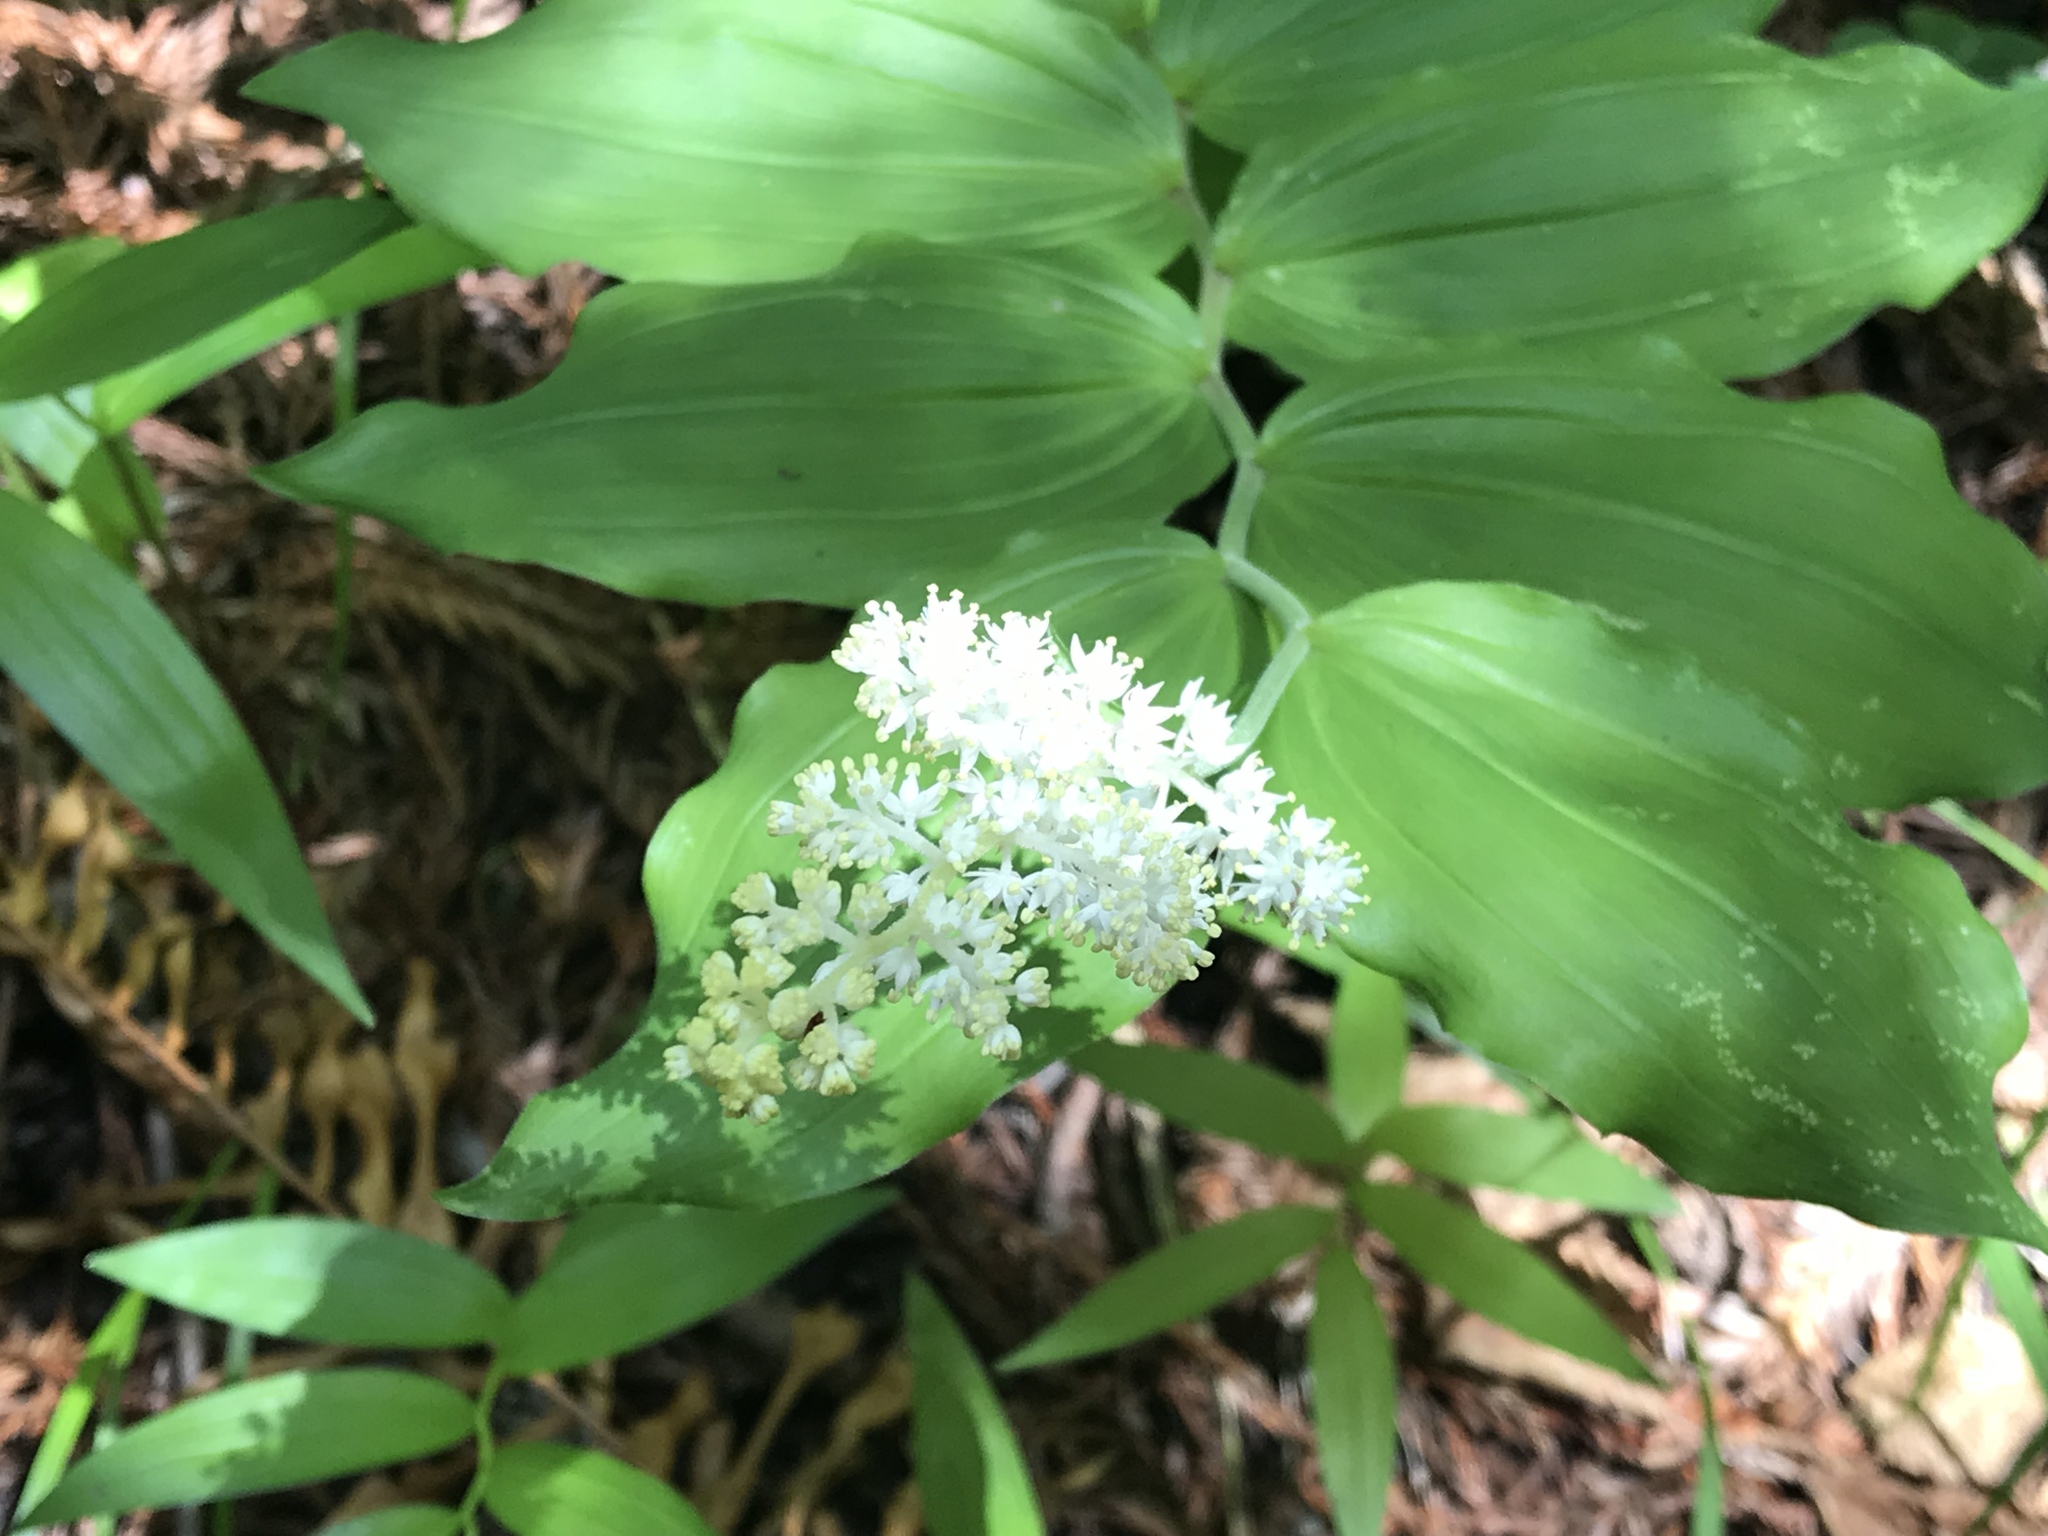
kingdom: Plantae
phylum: Tracheophyta
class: Liliopsida
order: Asparagales
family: Asparagaceae
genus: Maianthemum
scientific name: Maianthemum racemosum
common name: False spikenard
